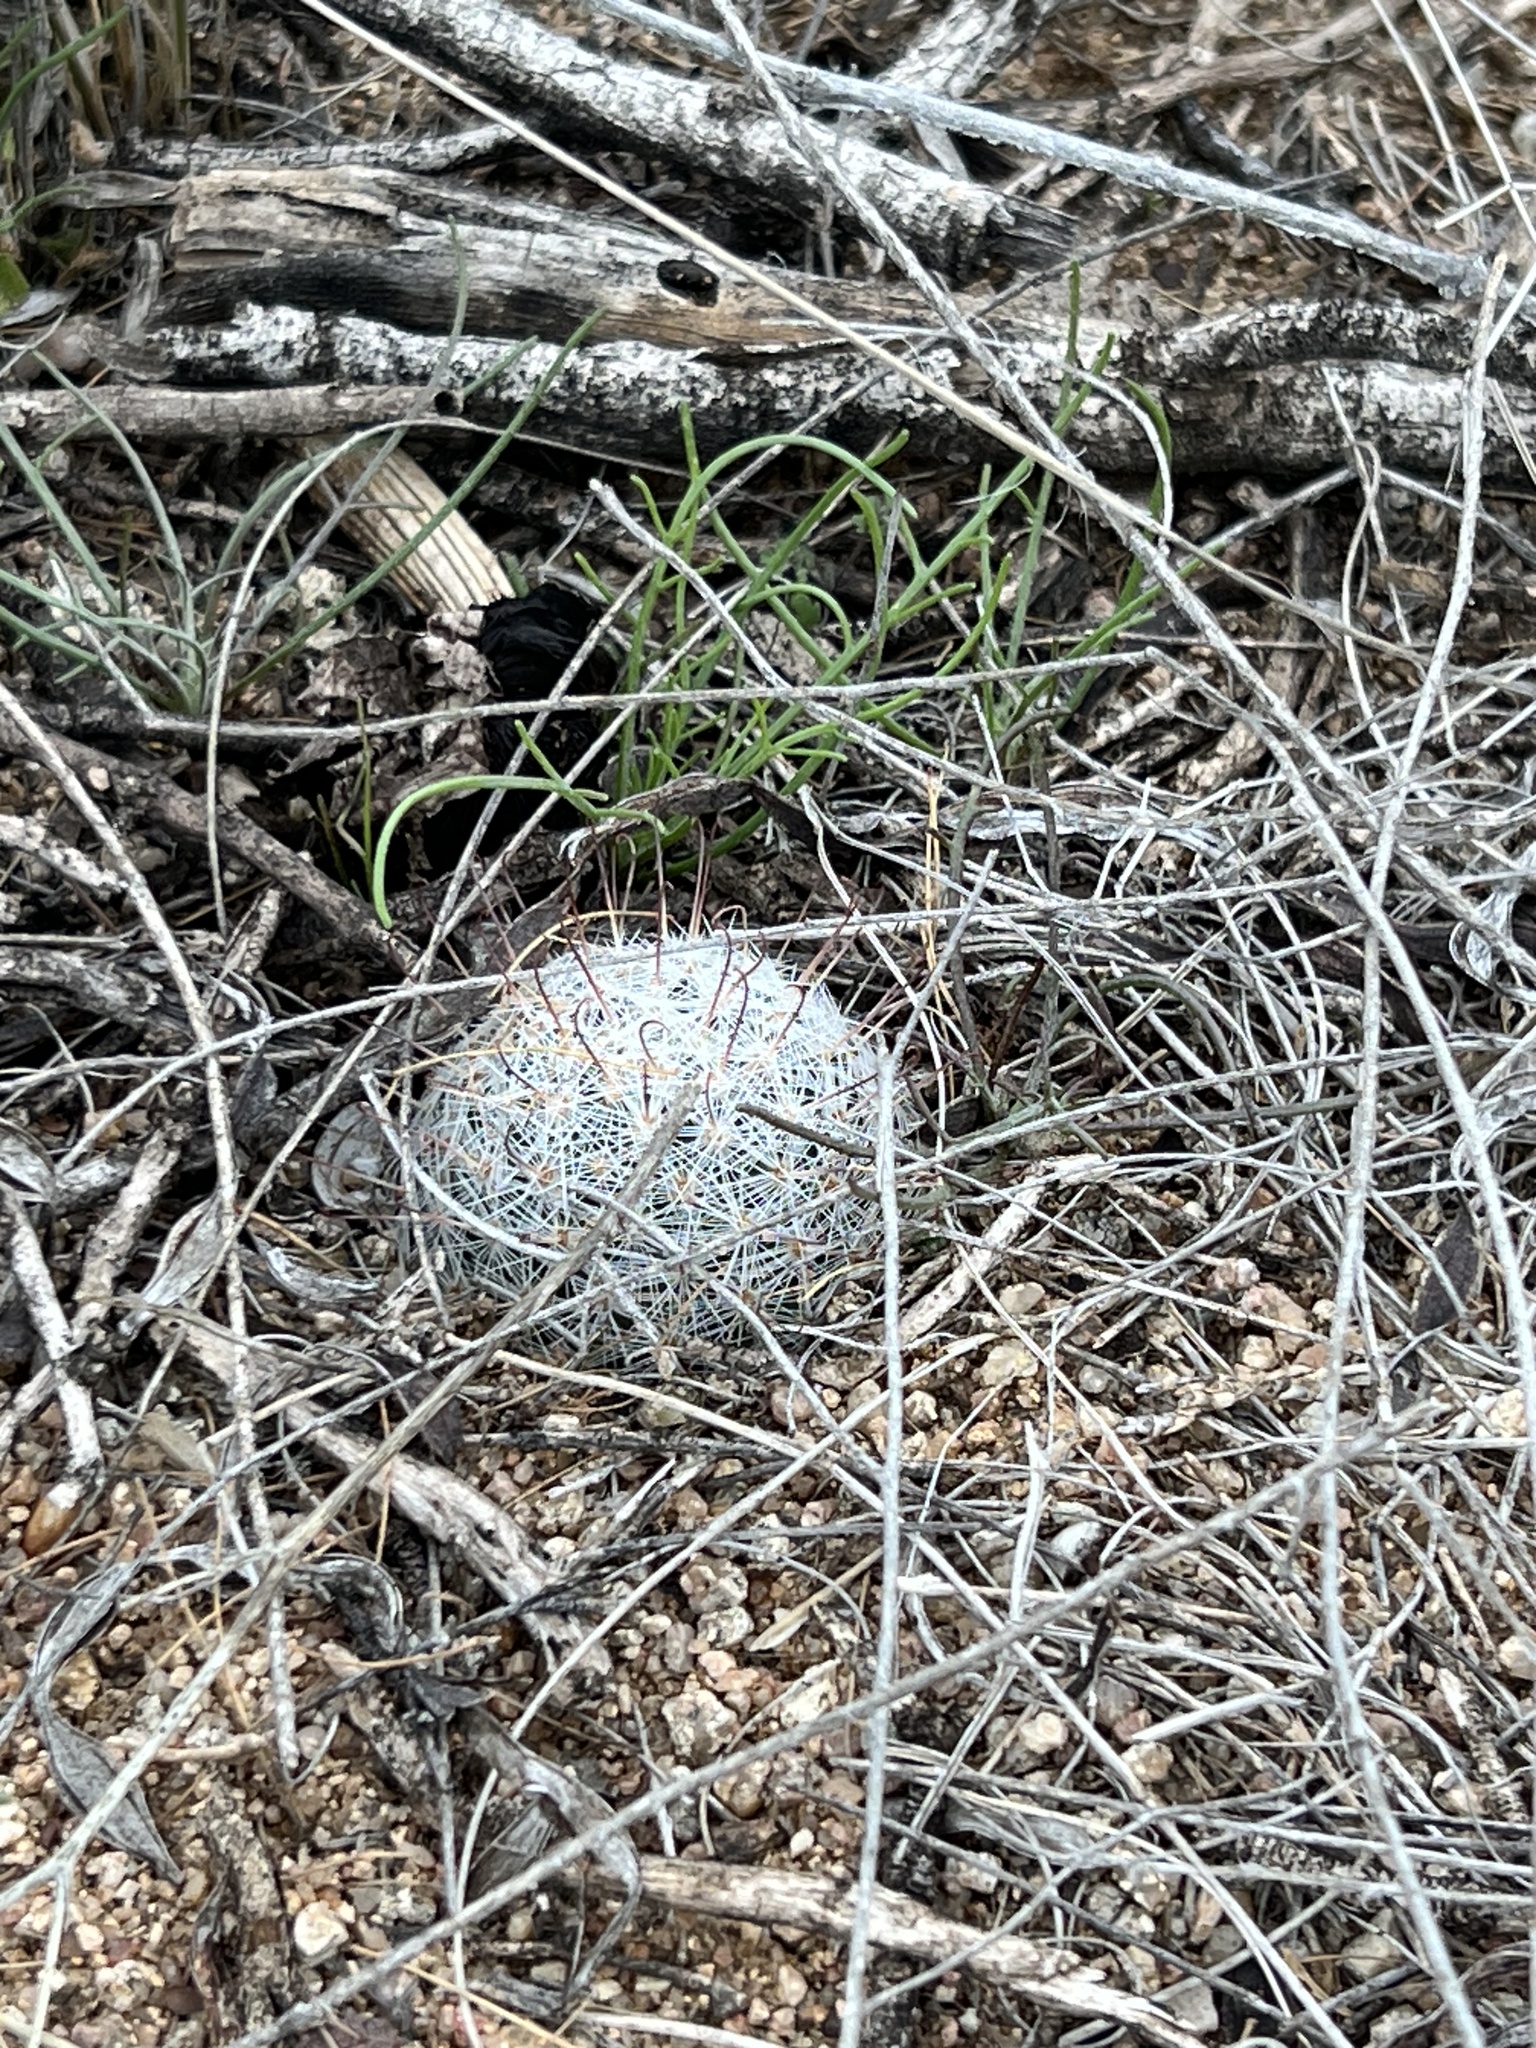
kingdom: Plantae
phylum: Tracheophyta
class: Magnoliopsida
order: Caryophyllales
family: Cactaceae
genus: Cochemiea
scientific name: Cochemiea grahamii
